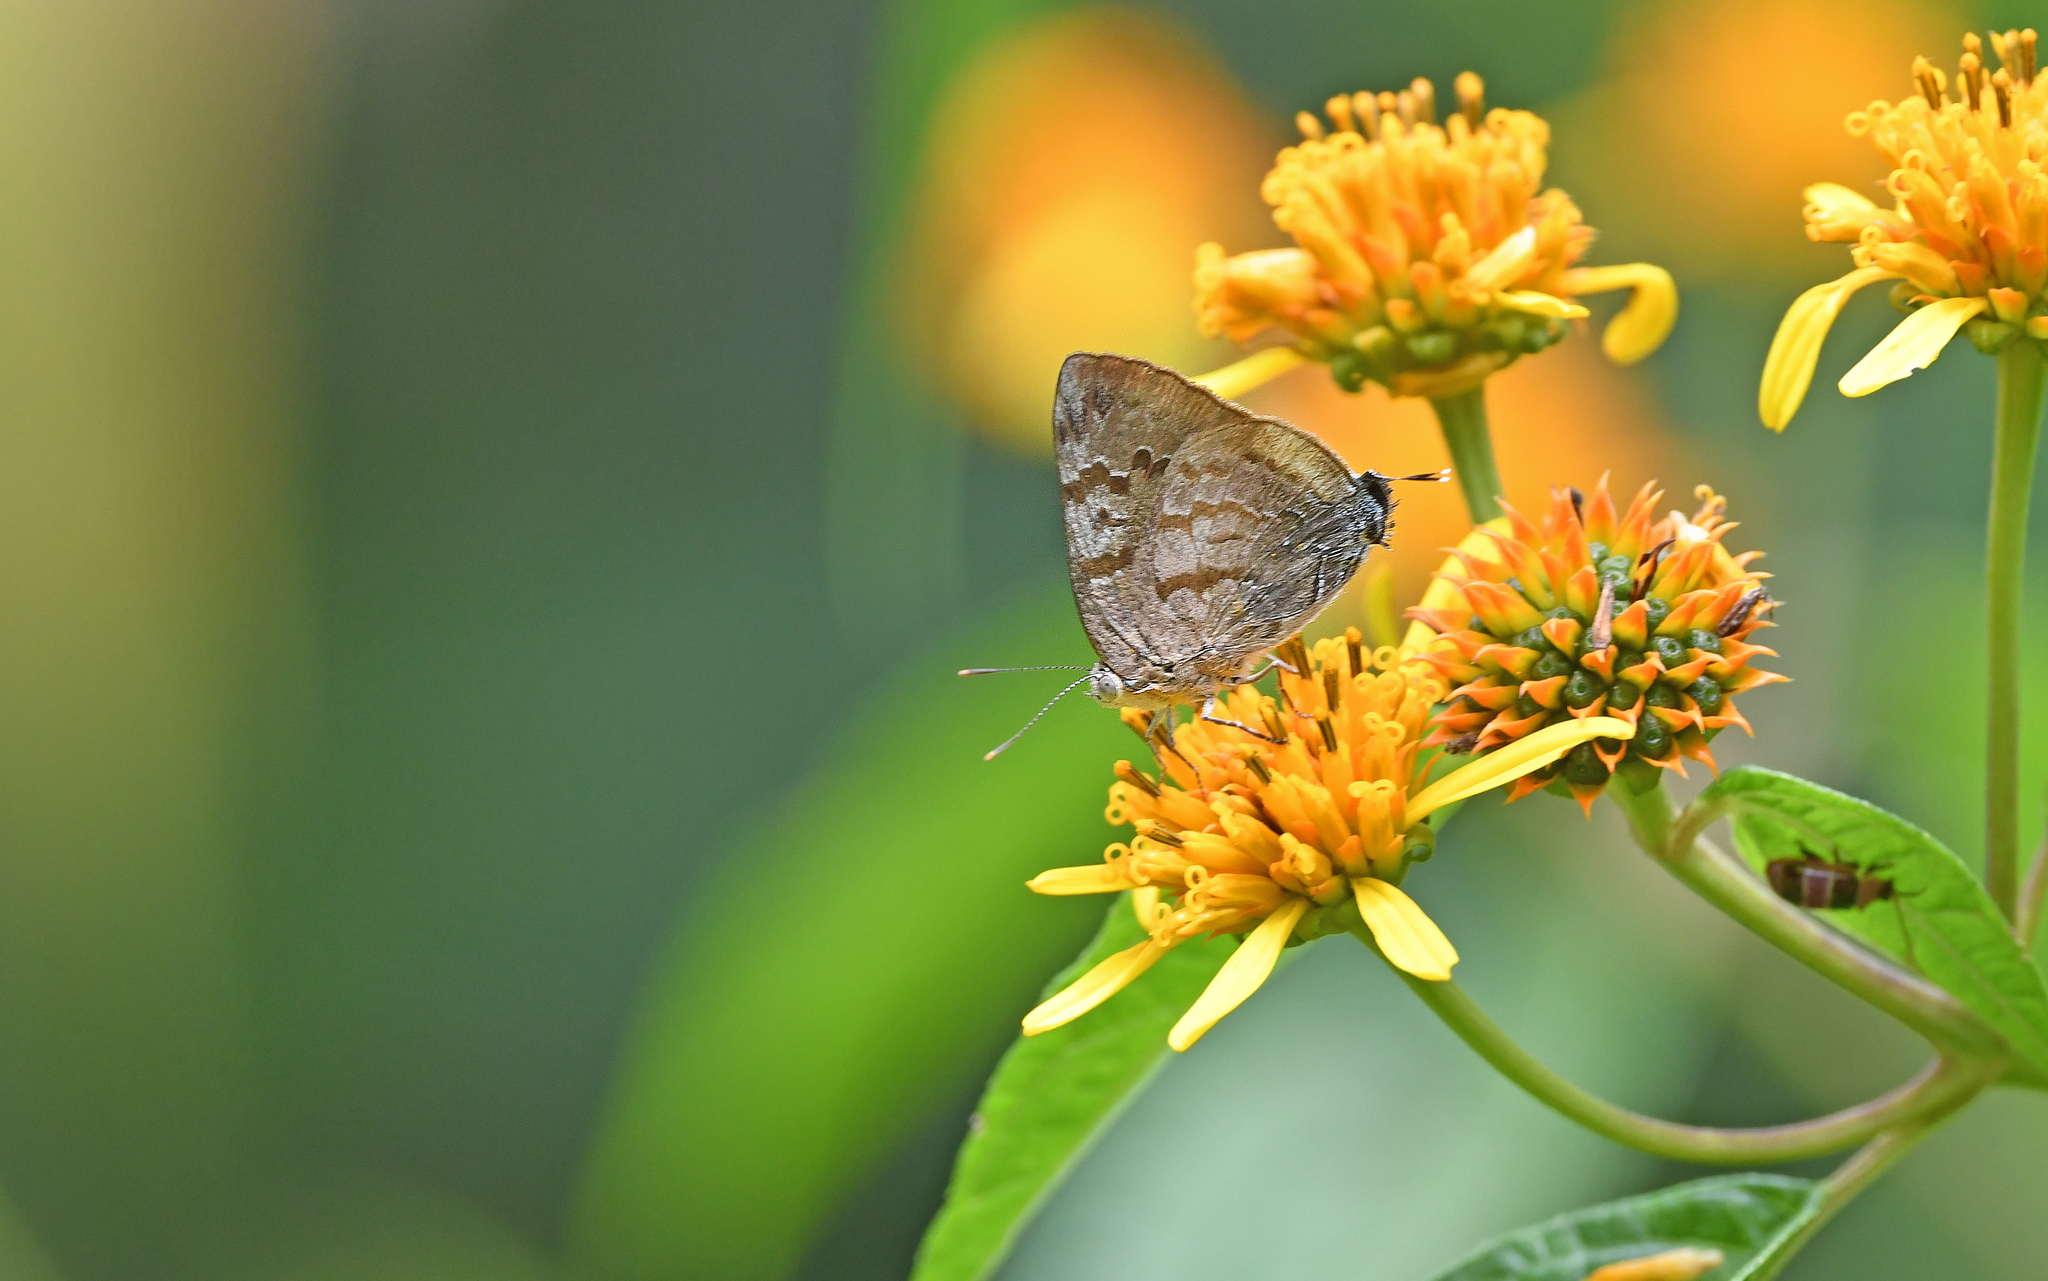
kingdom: Animalia
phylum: Arthropoda
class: Insecta
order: Lepidoptera
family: Lycaenidae
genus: Rekoa
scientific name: Rekoa palegon
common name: Gold-bordered hairstreak
